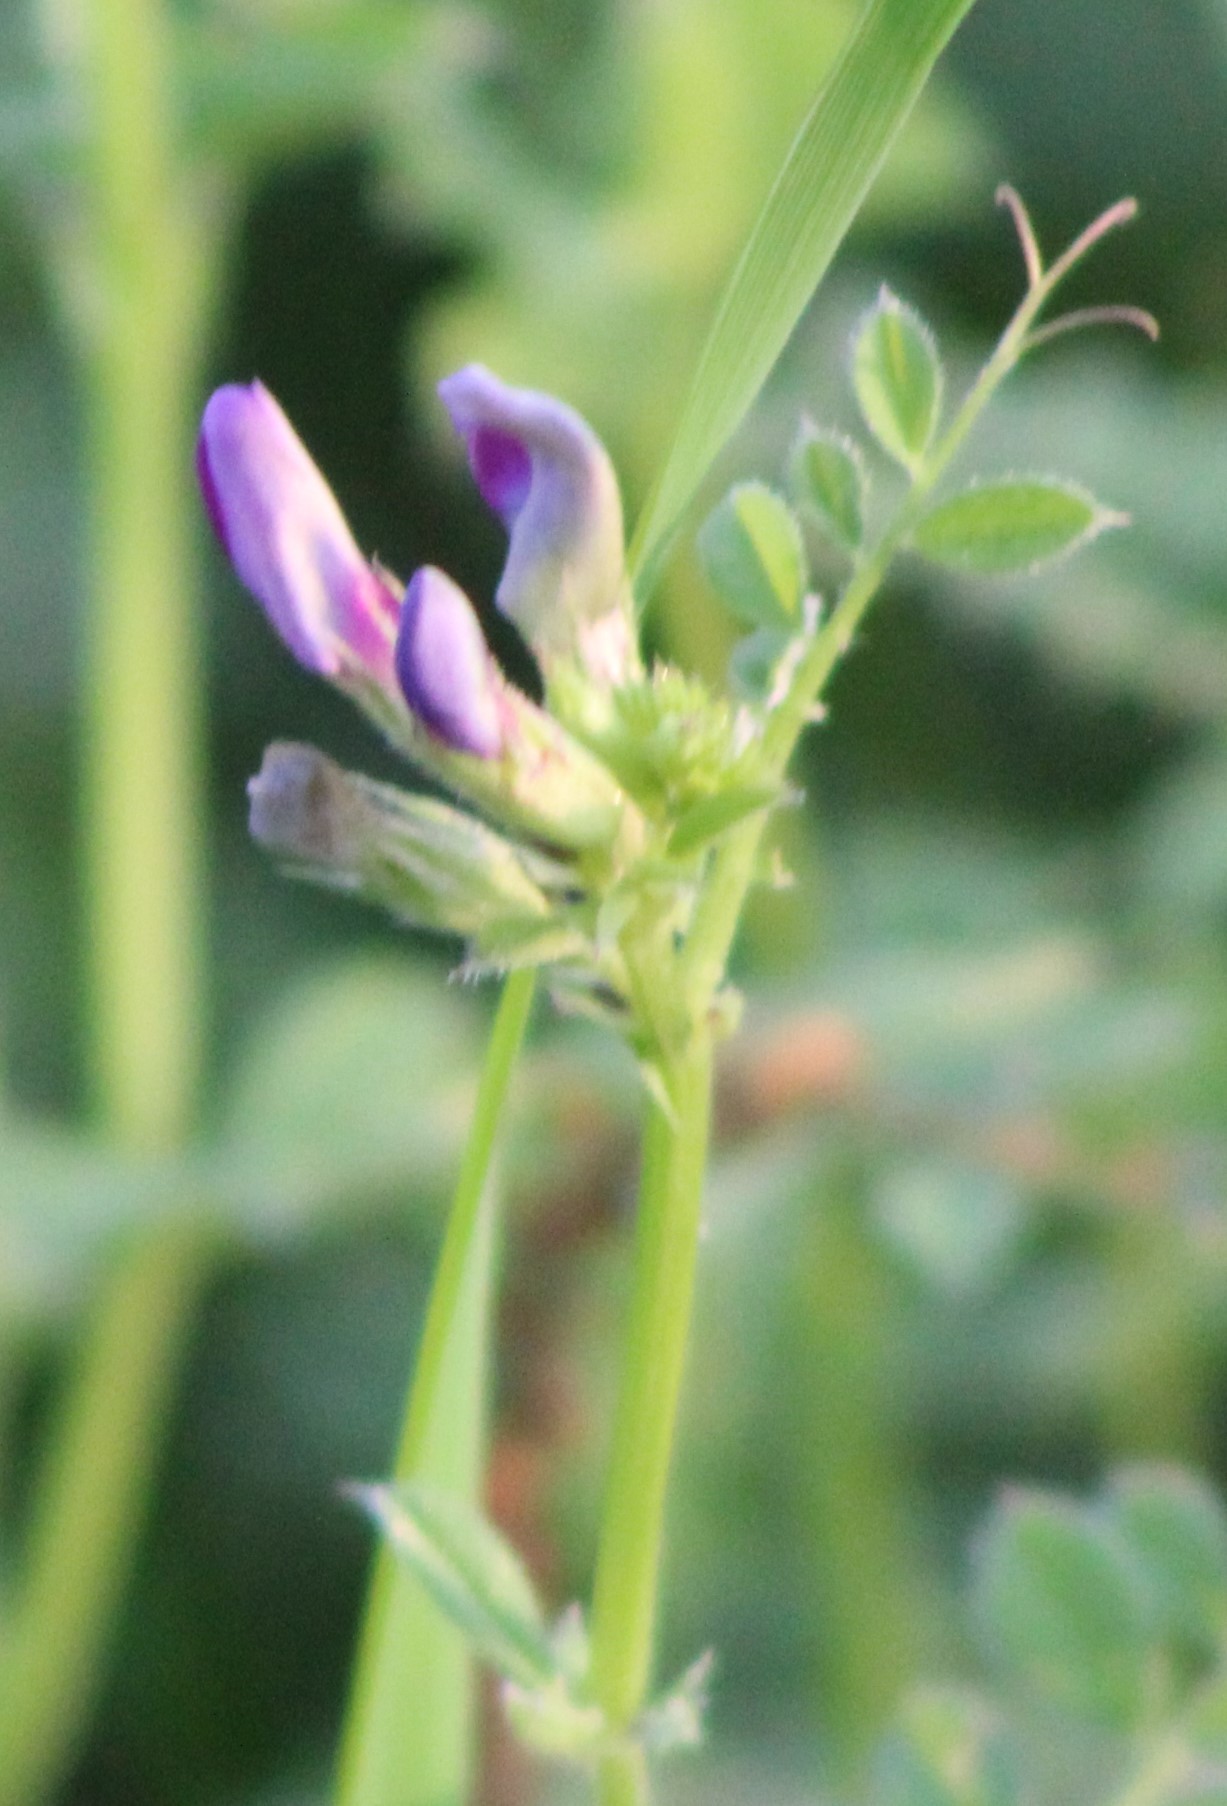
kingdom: Plantae
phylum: Tracheophyta
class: Magnoliopsida
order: Fabales
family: Fabaceae
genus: Vicia
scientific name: Vicia sativa
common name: Garden vetch
